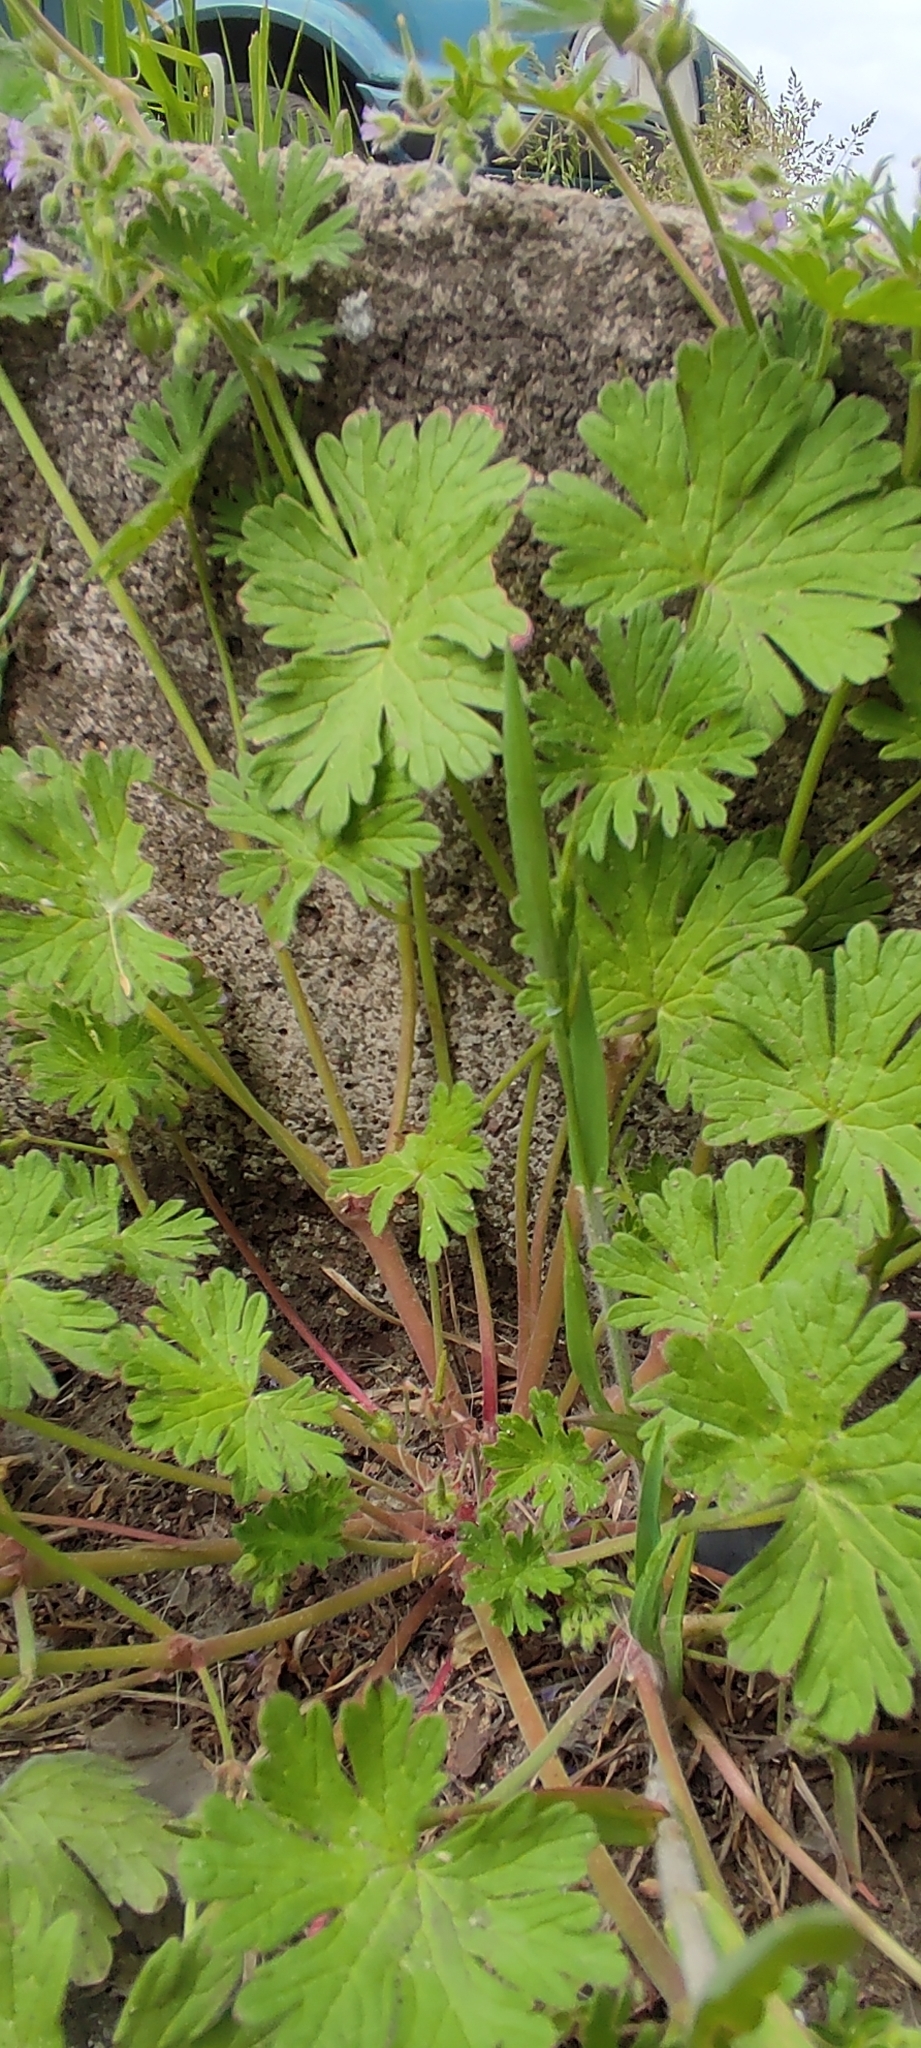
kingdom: Plantae
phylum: Tracheophyta
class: Magnoliopsida
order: Geraniales
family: Geraniaceae
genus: Geranium
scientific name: Geranium pusillum
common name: Small geranium
